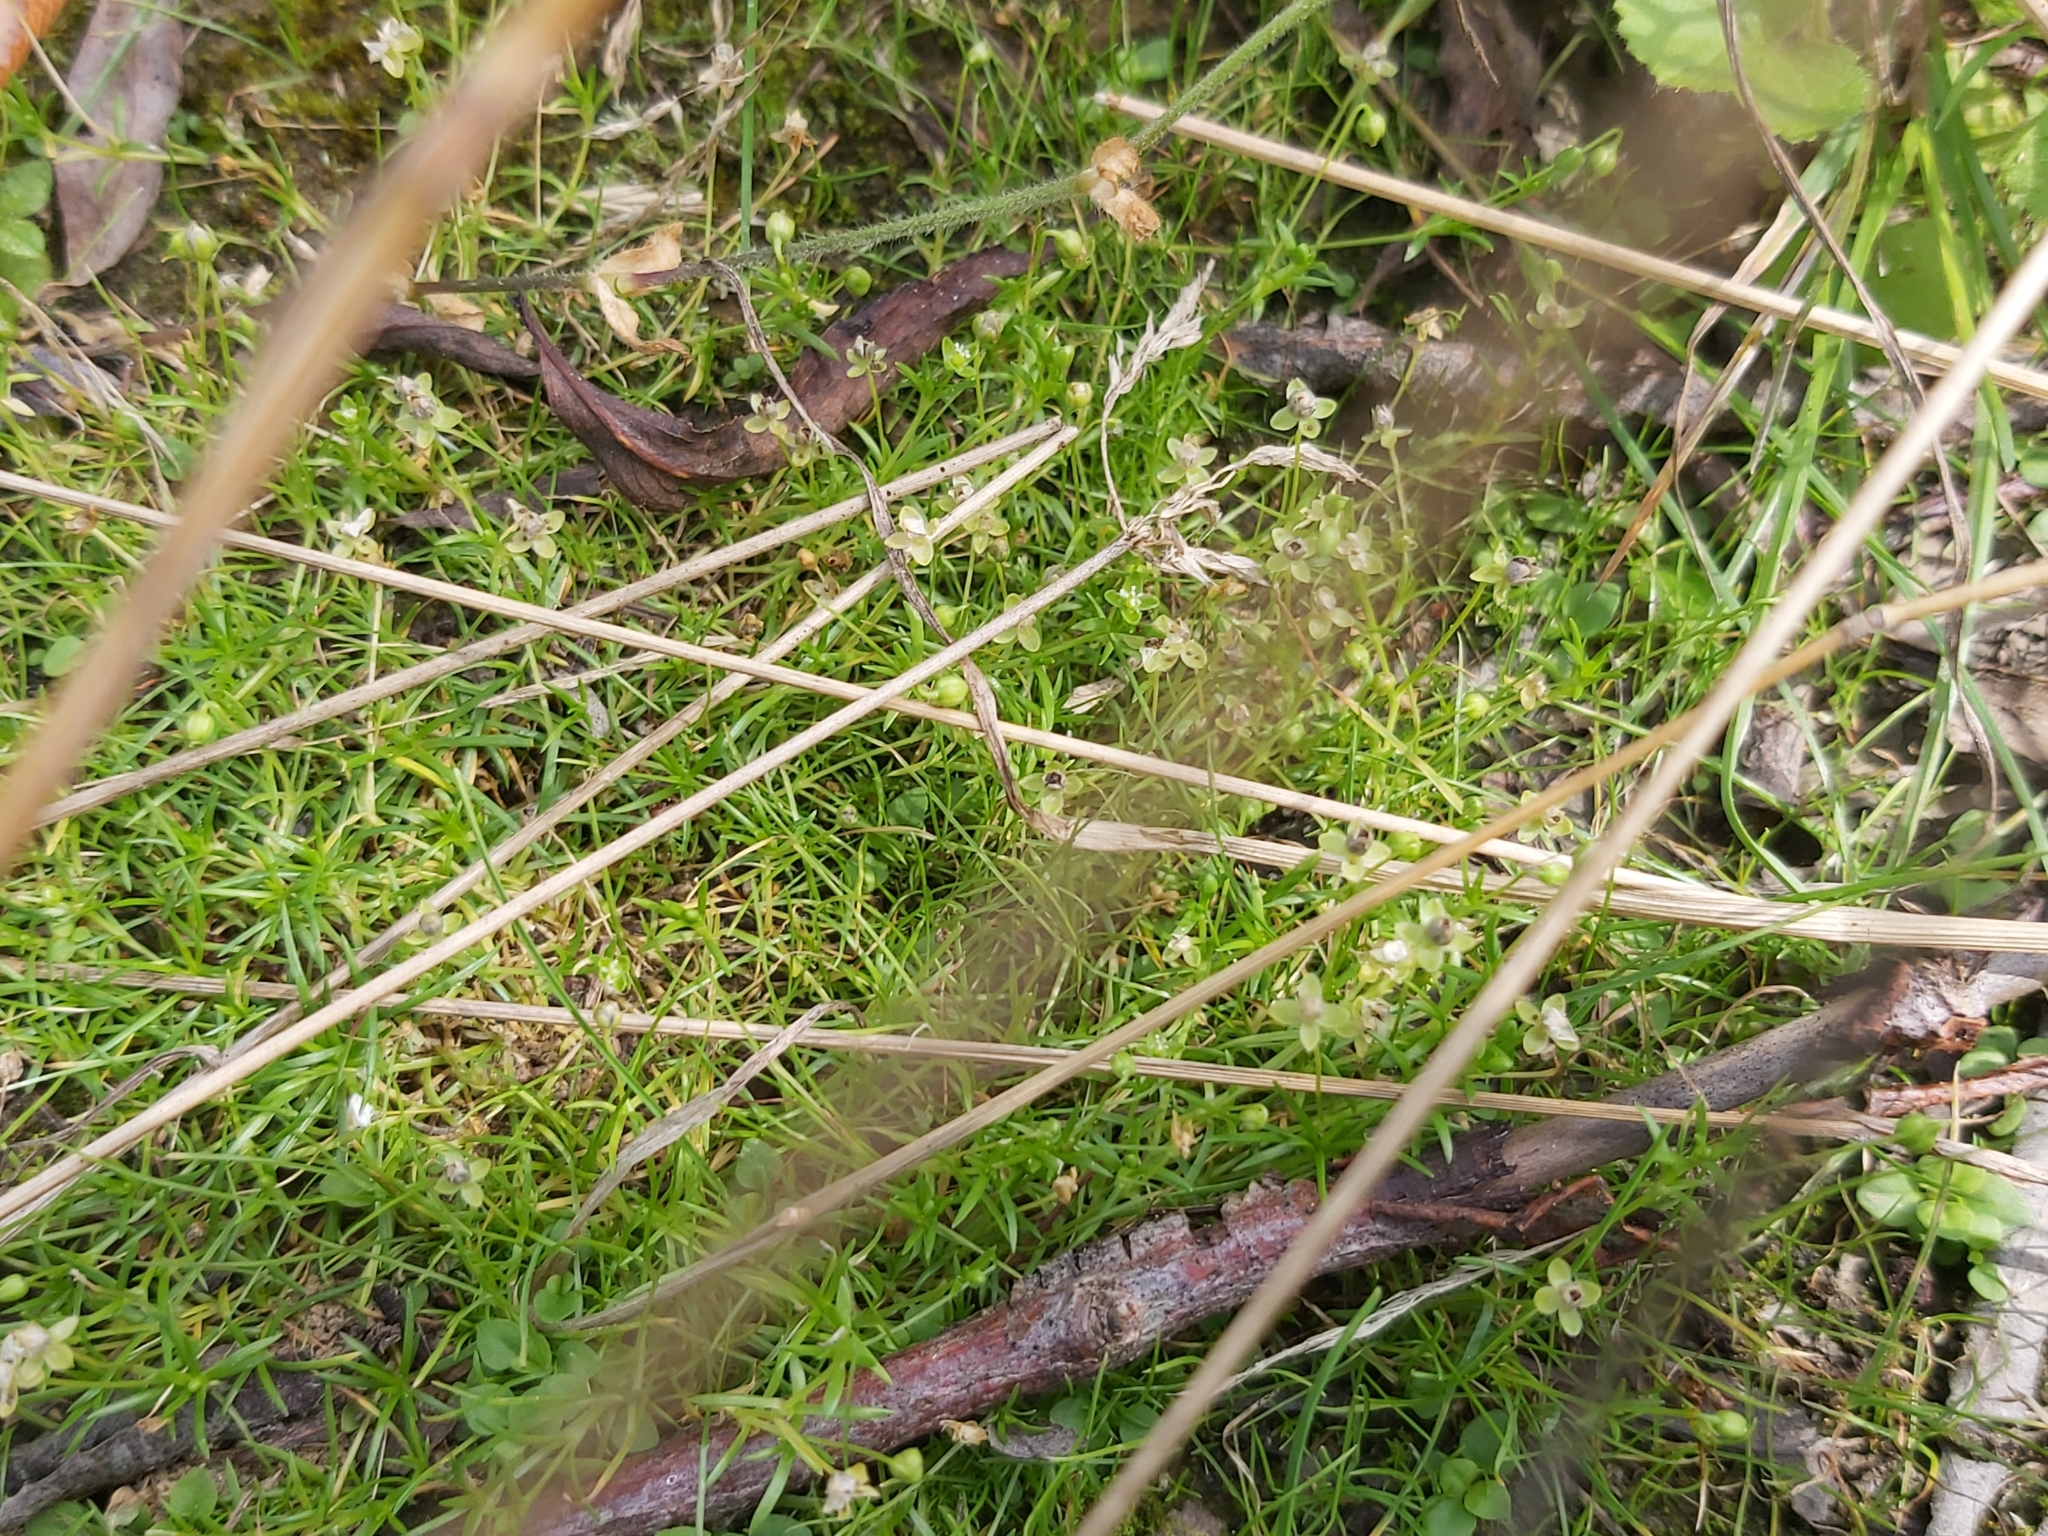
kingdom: Plantae
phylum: Tracheophyta
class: Magnoliopsida
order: Caryophyllales
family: Caryophyllaceae
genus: Sagina
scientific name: Sagina procumbens
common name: Procumbent pearlwort
